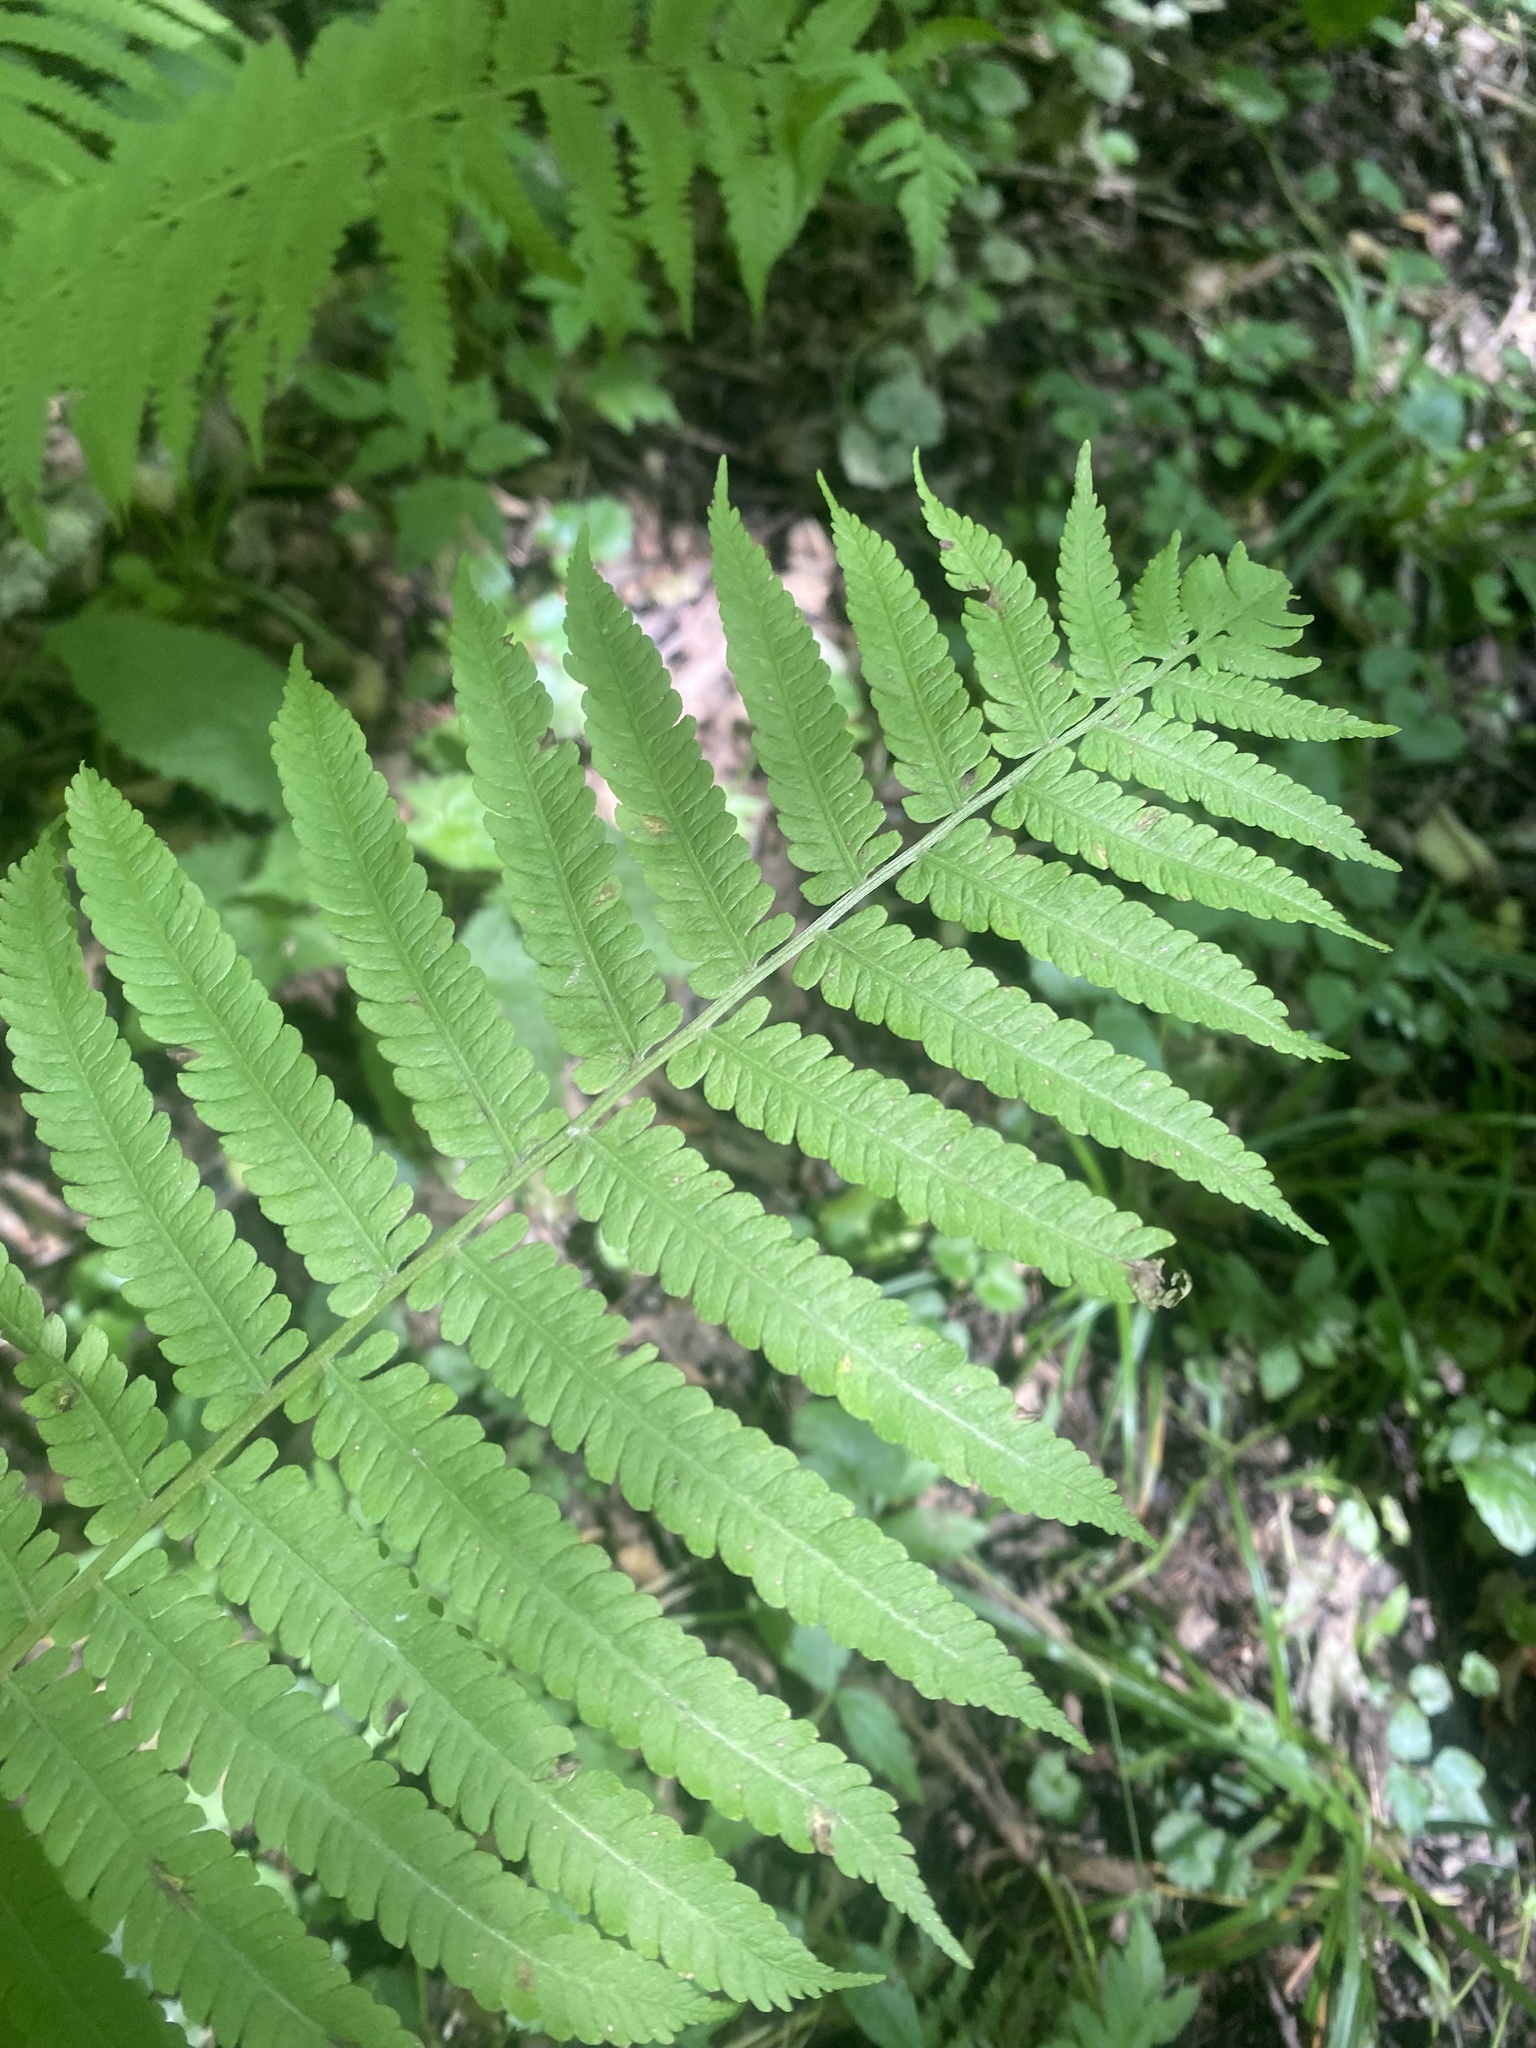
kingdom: Plantae
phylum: Tracheophyta
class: Polypodiopsida
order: Polypodiales
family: Onocleaceae
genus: Matteuccia
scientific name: Matteuccia struthiopteris
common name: Ostrich fern
